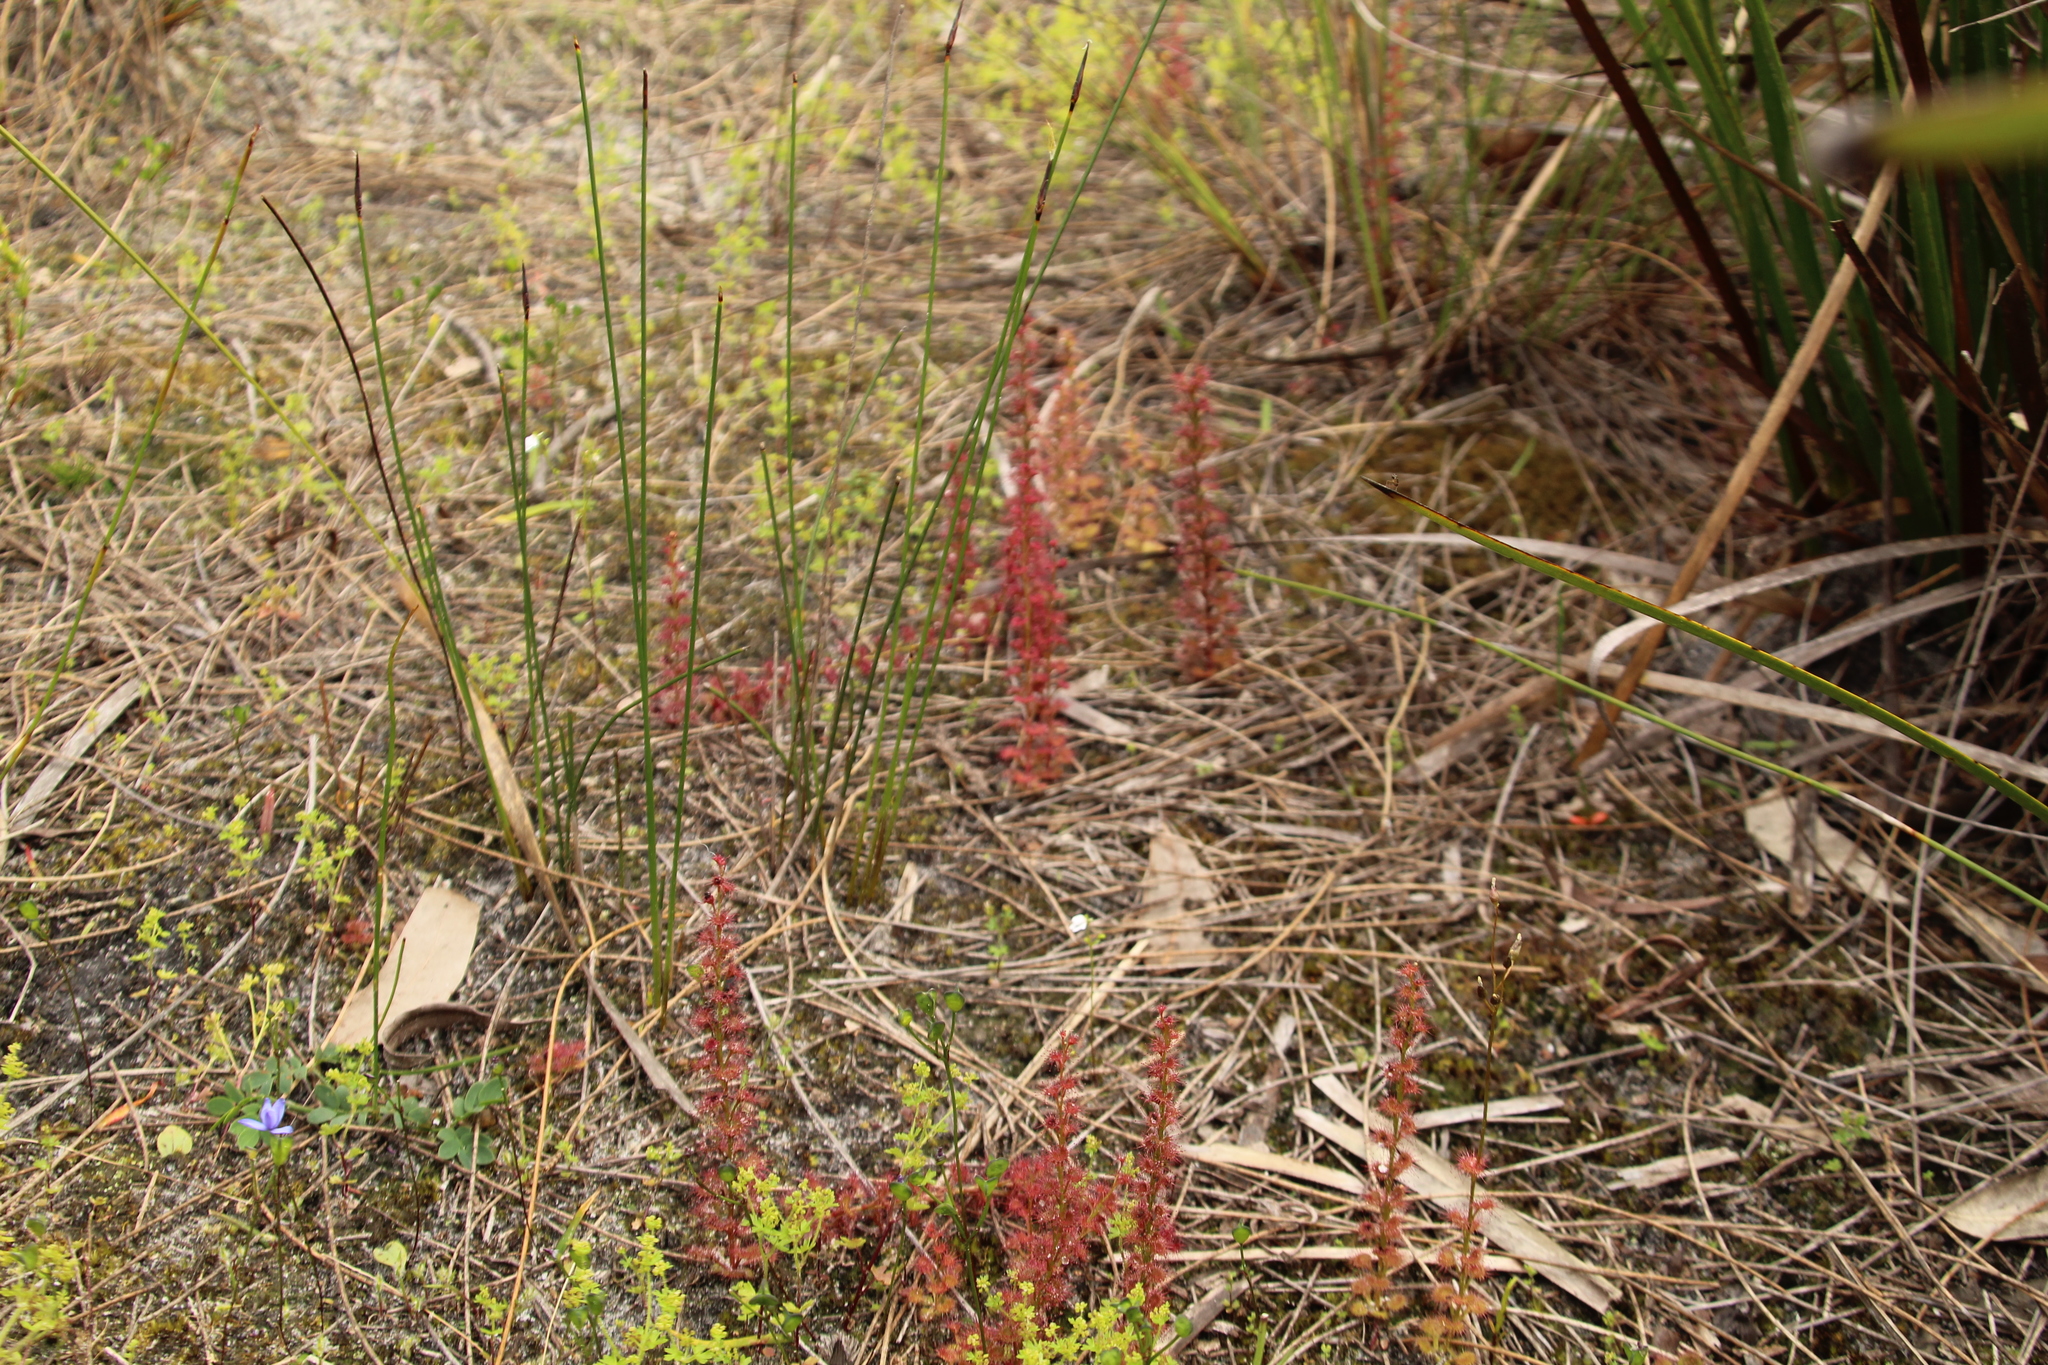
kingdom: Plantae
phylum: Tracheophyta
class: Magnoliopsida
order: Caryophyllales
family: Droseraceae
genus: Drosera
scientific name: Drosera platypoda
